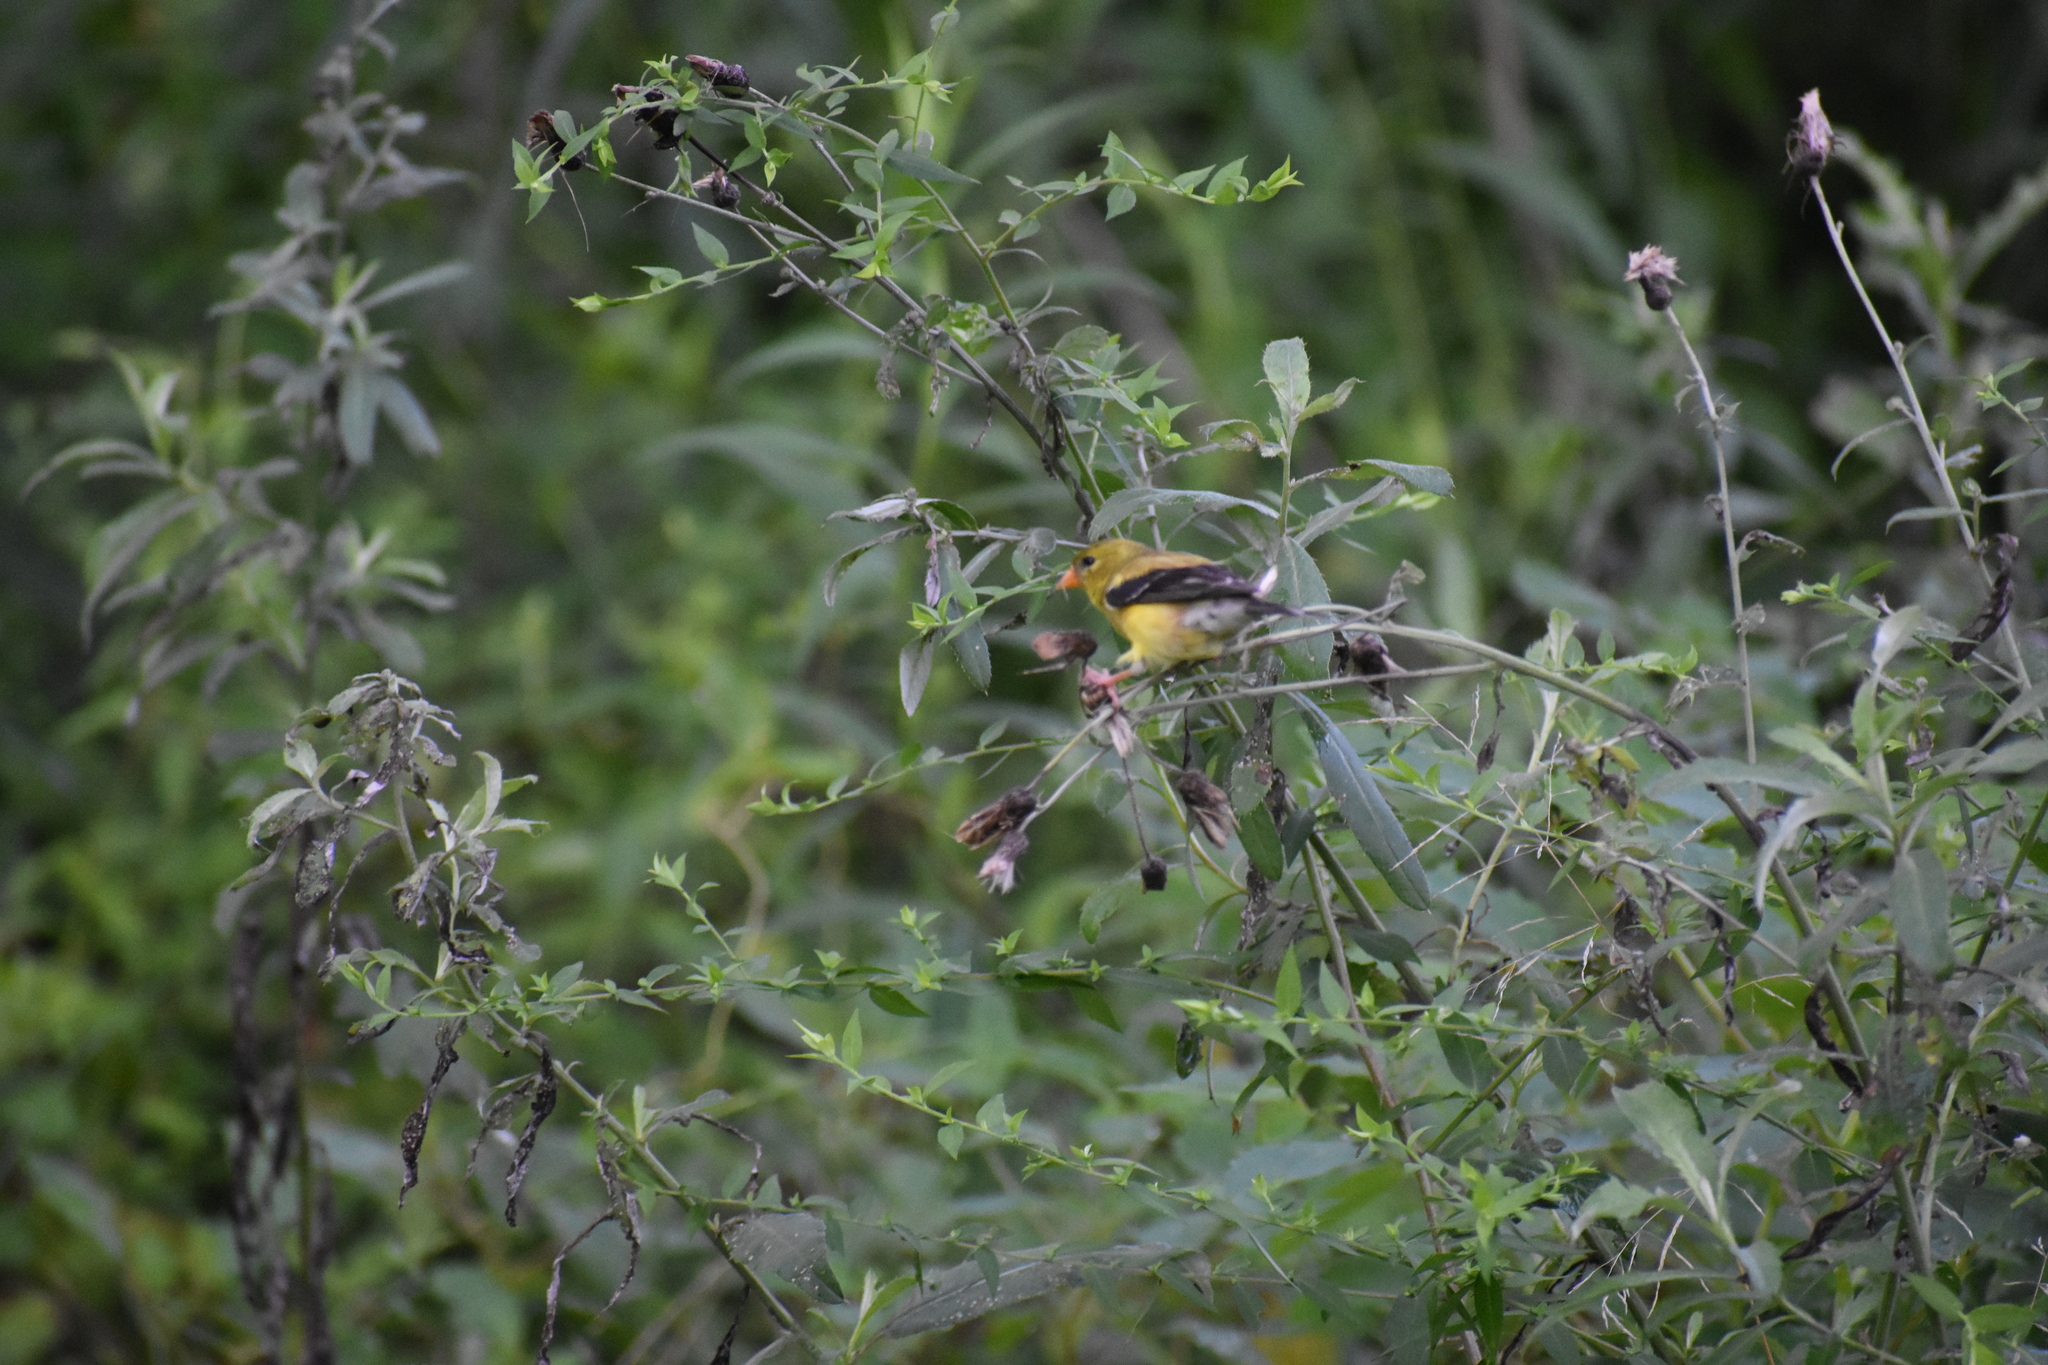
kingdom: Animalia
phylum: Chordata
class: Aves
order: Passeriformes
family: Fringillidae
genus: Spinus
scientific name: Spinus tristis
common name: American goldfinch
